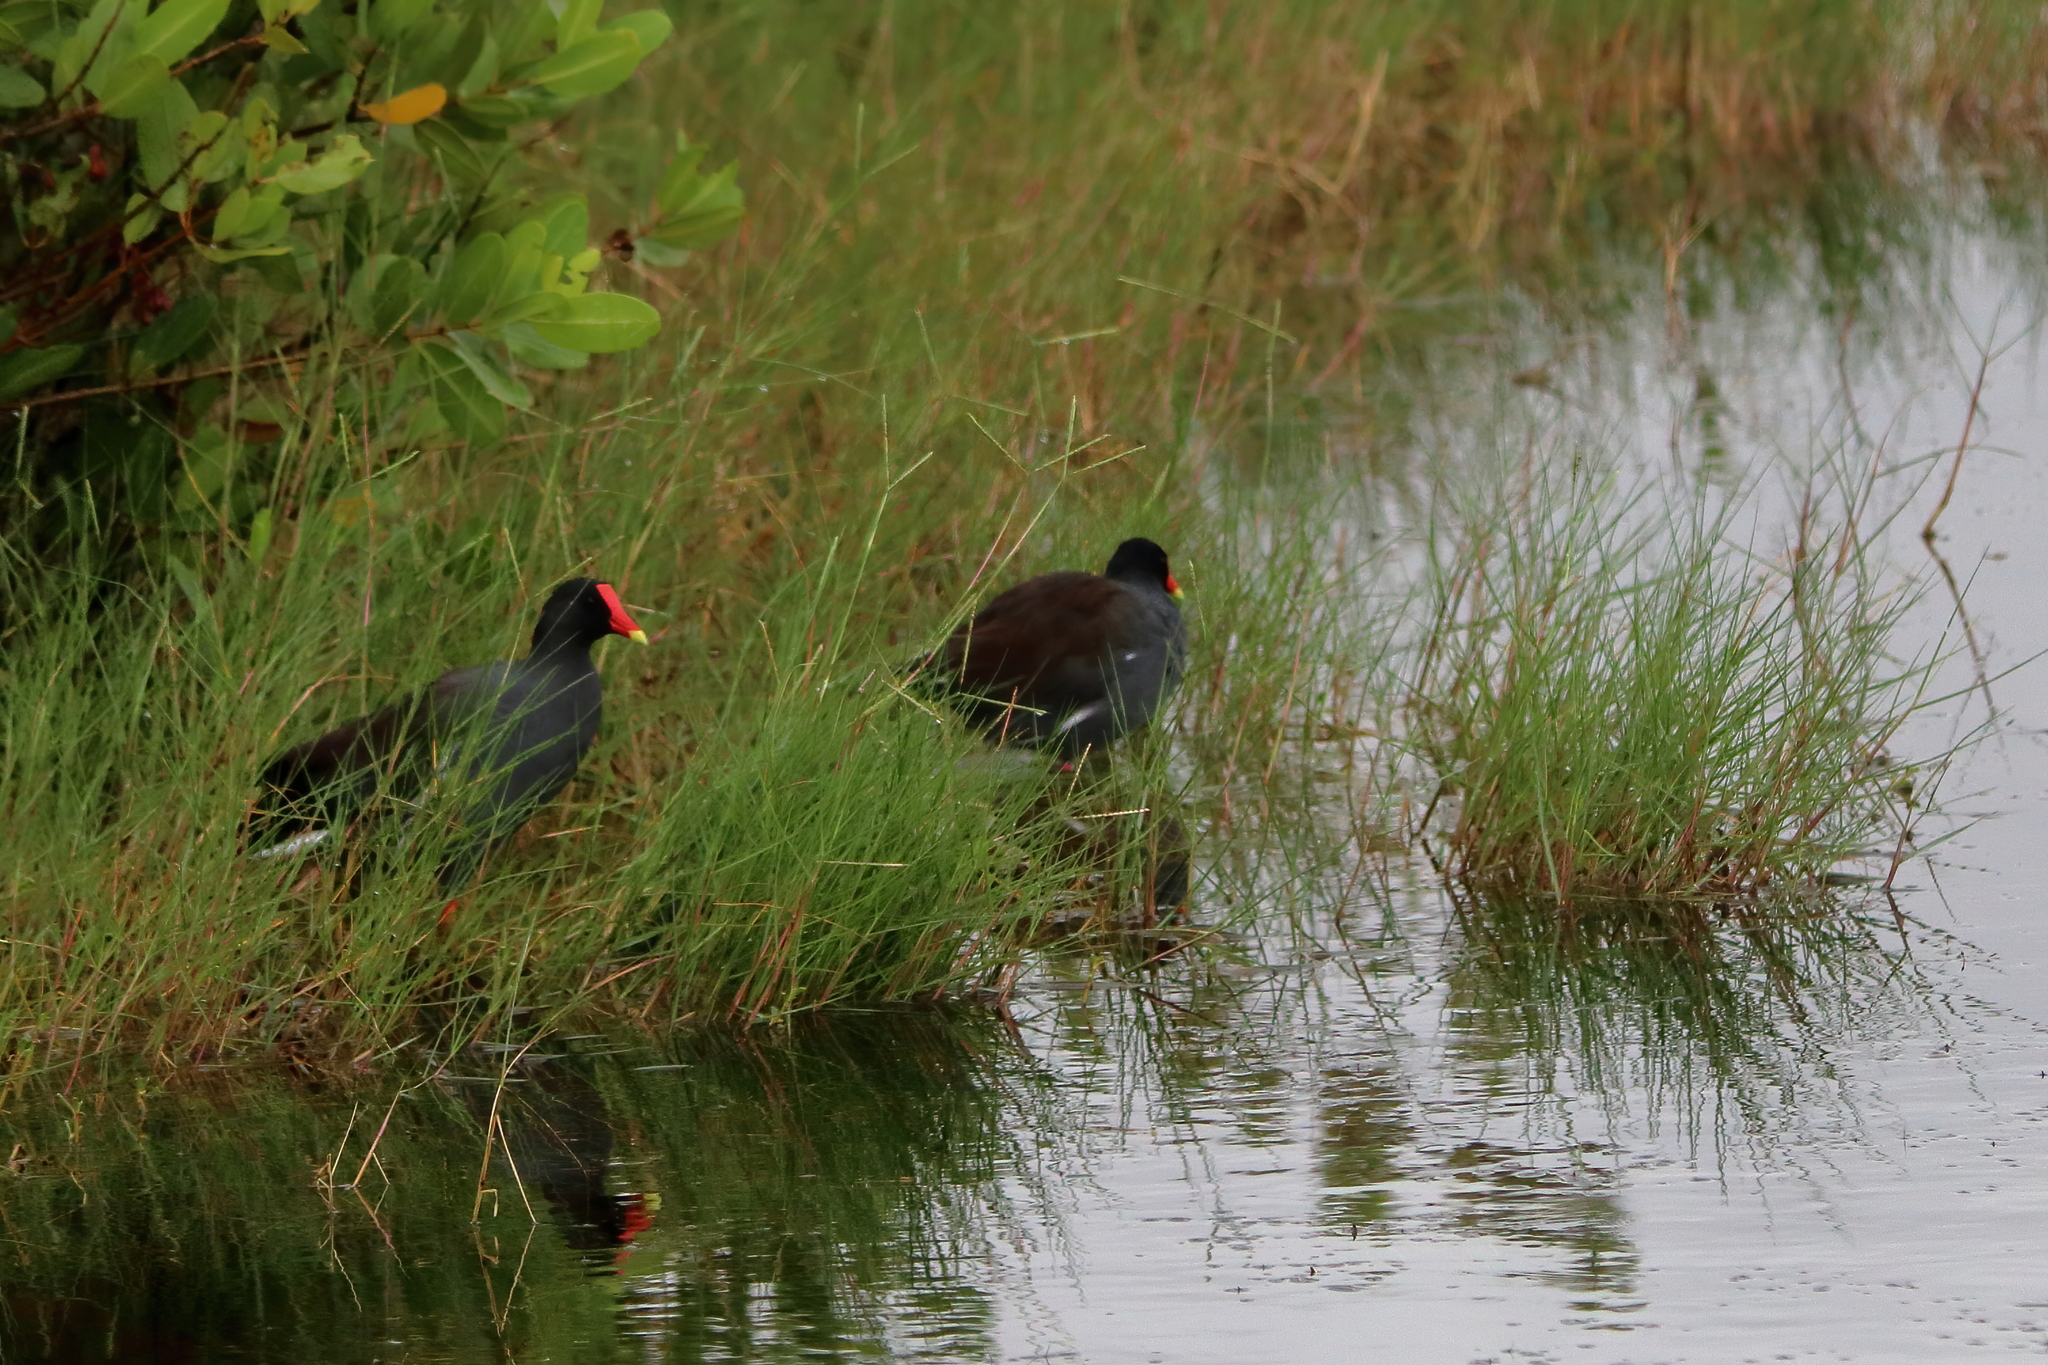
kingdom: Animalia
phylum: Chordata
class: Aves
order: Gruiformes
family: Rallidae
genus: Gallinula
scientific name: Gallinula chloropus
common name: Common moorhen
